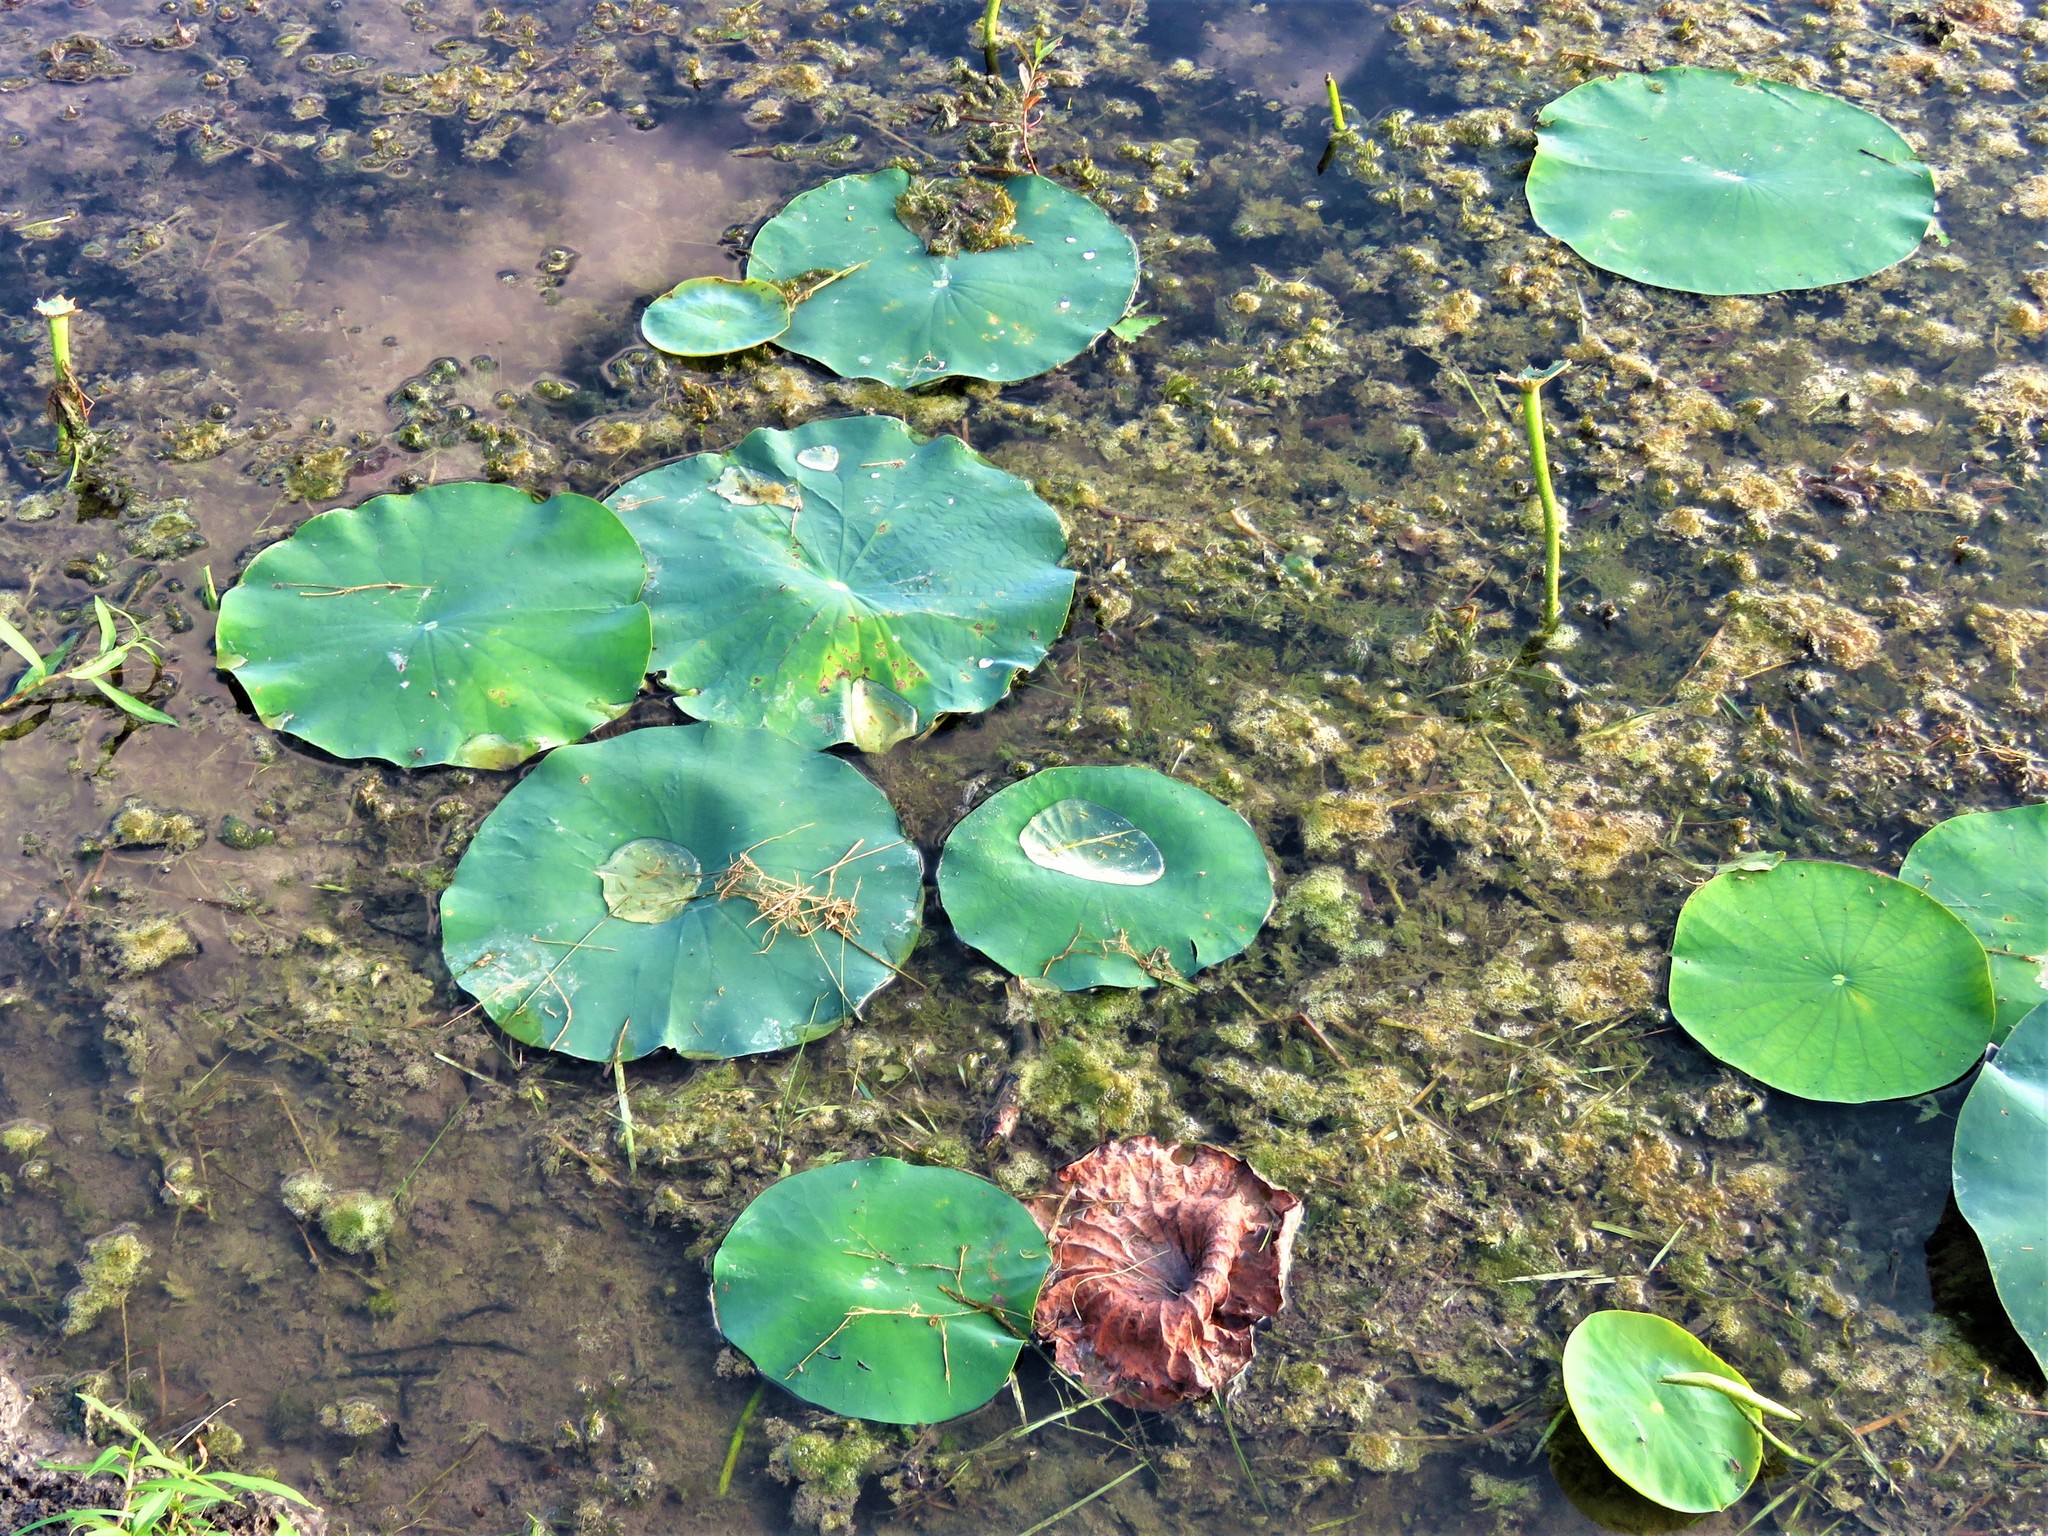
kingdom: Plantae
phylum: Tracheophyta
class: Magnoliopsida
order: Proteales
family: Nelumbonaceae
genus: Nelumbo
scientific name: Nelumbo lutea
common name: American lotus
